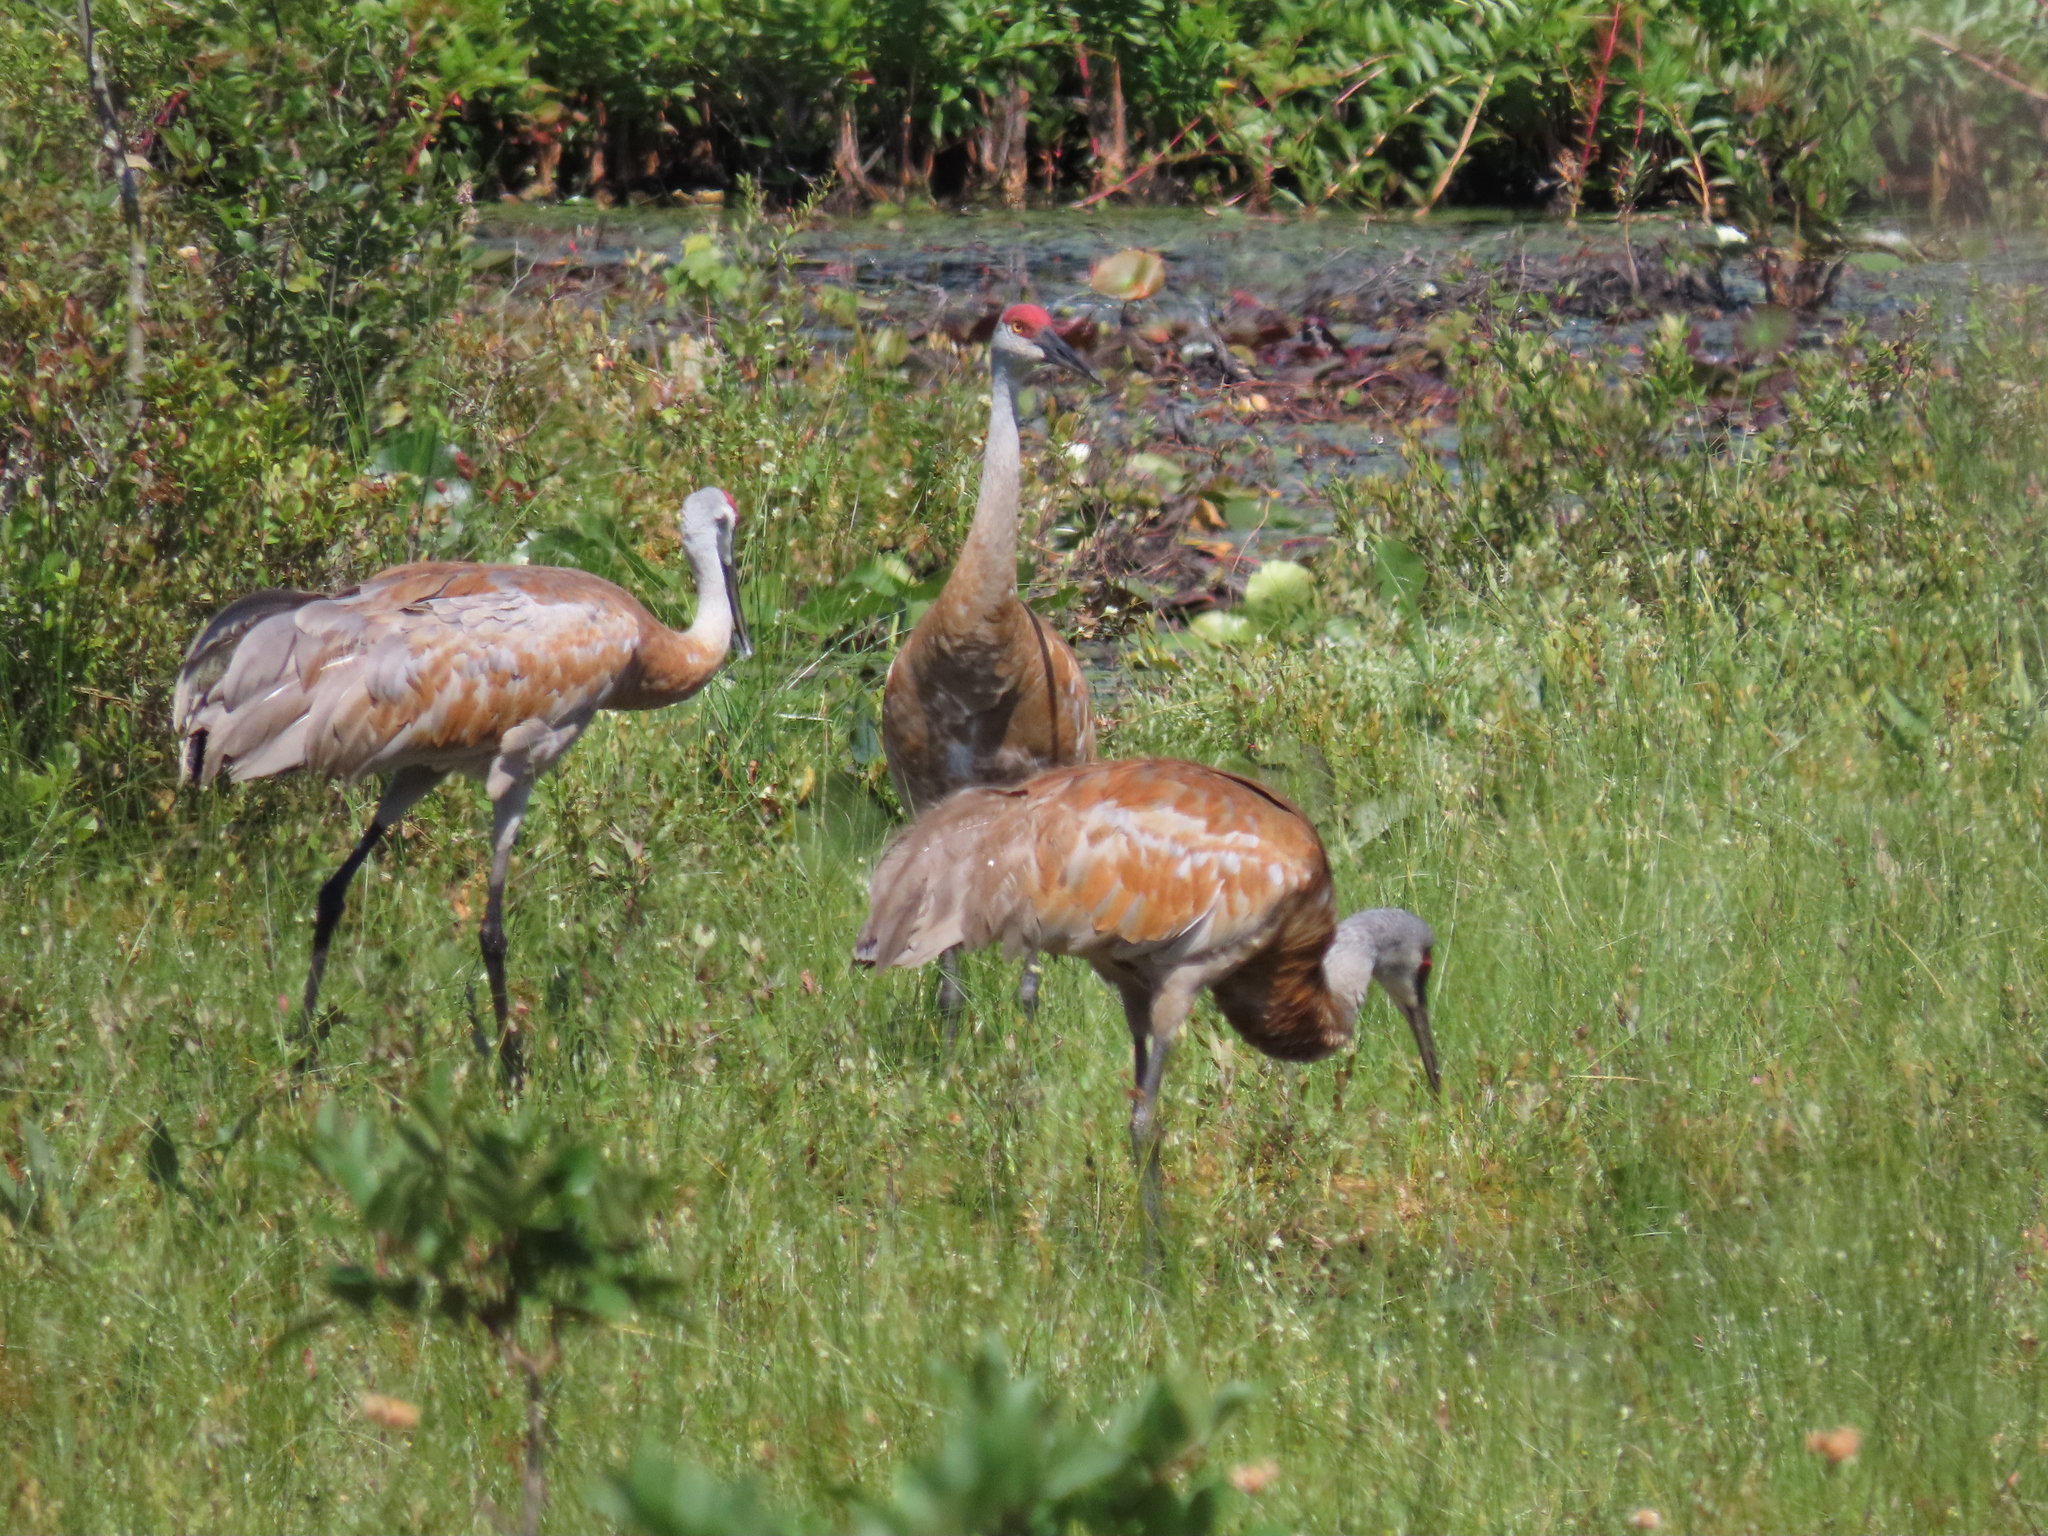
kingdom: Animalia
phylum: Chordata
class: Aves
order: Gruiformes
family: Gruidae
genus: Grus
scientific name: Grus canadensis
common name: Sandhill crane
